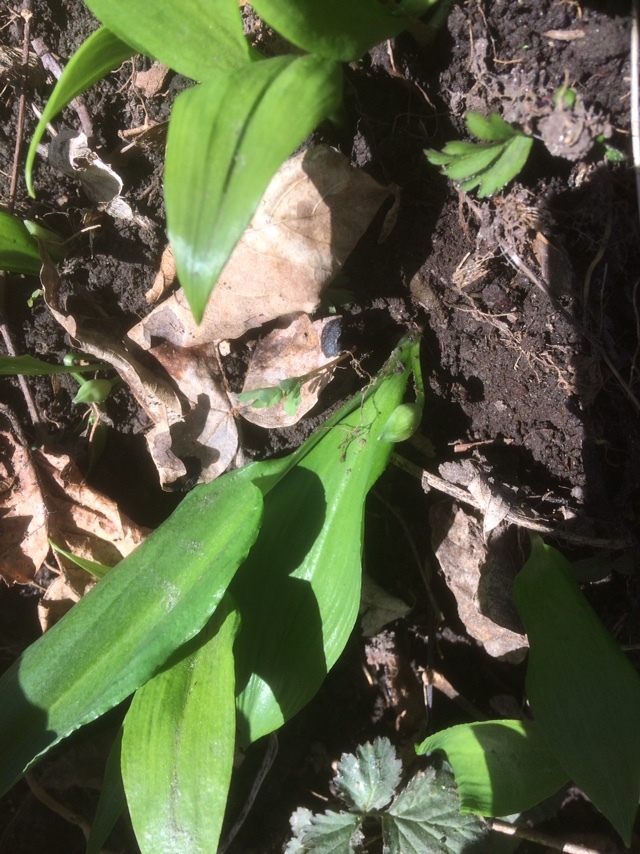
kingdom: Plantae
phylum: Tracheophyta
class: Liliopsida
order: Asparagales
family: Amaryllidaceae
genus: Allium
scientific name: Allium ursinum
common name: Ramsons
